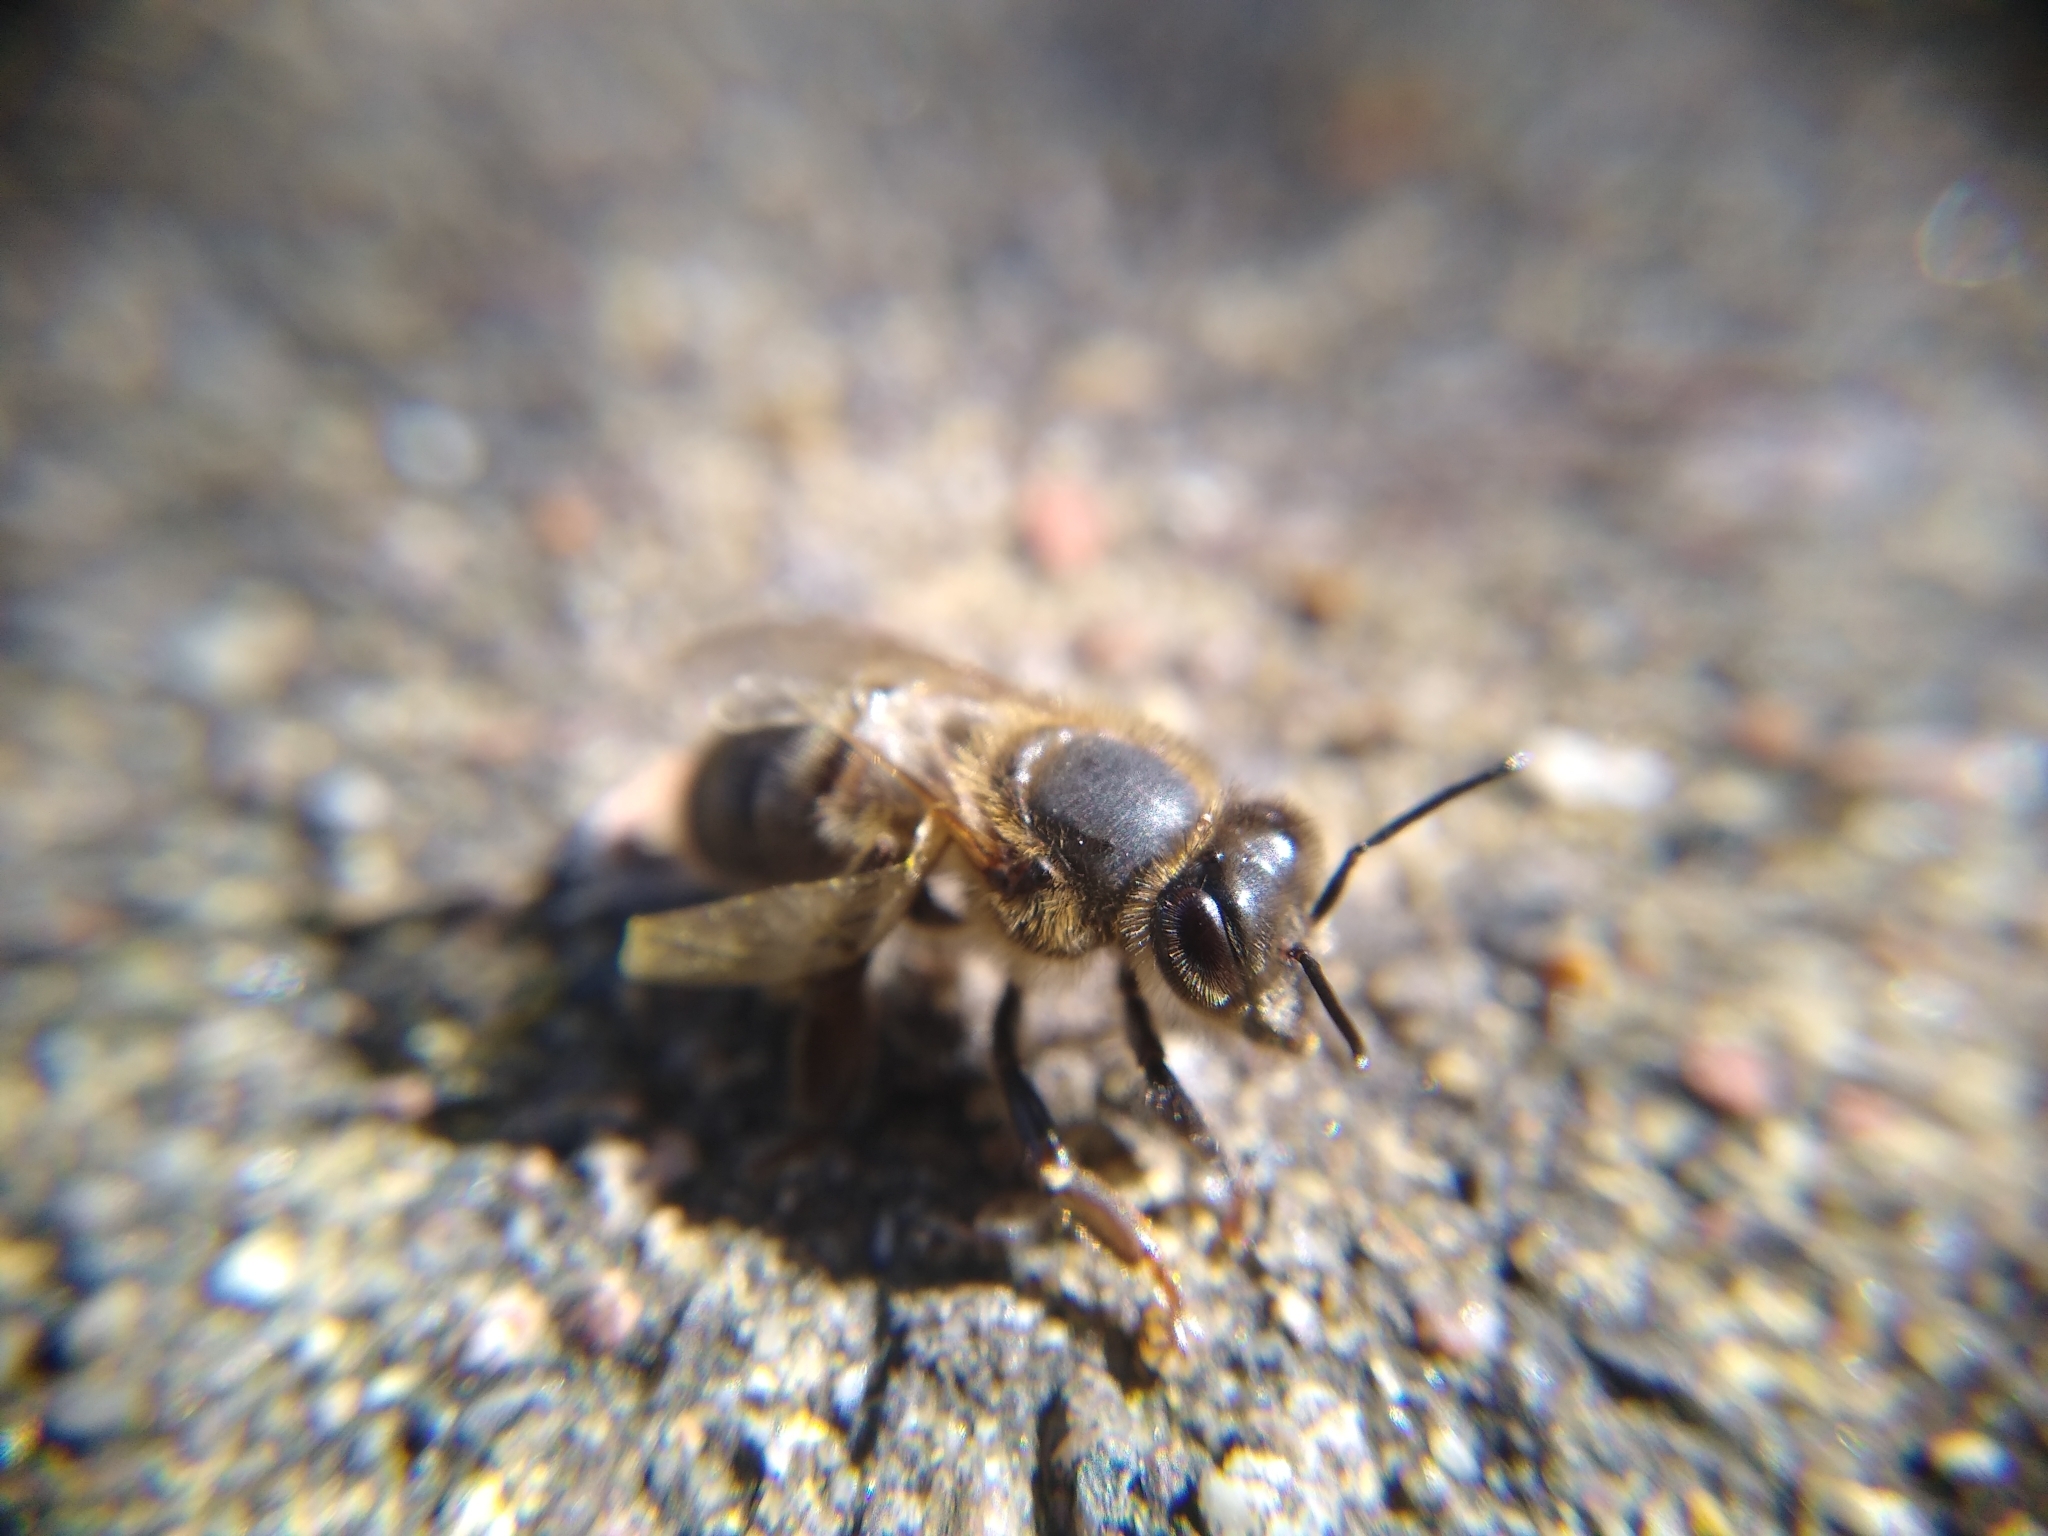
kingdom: Animalia
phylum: Arthropoda
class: Insecta
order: Hymenoptera
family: Apidae
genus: Apis
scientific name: Apis mellifera
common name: Honey bee
